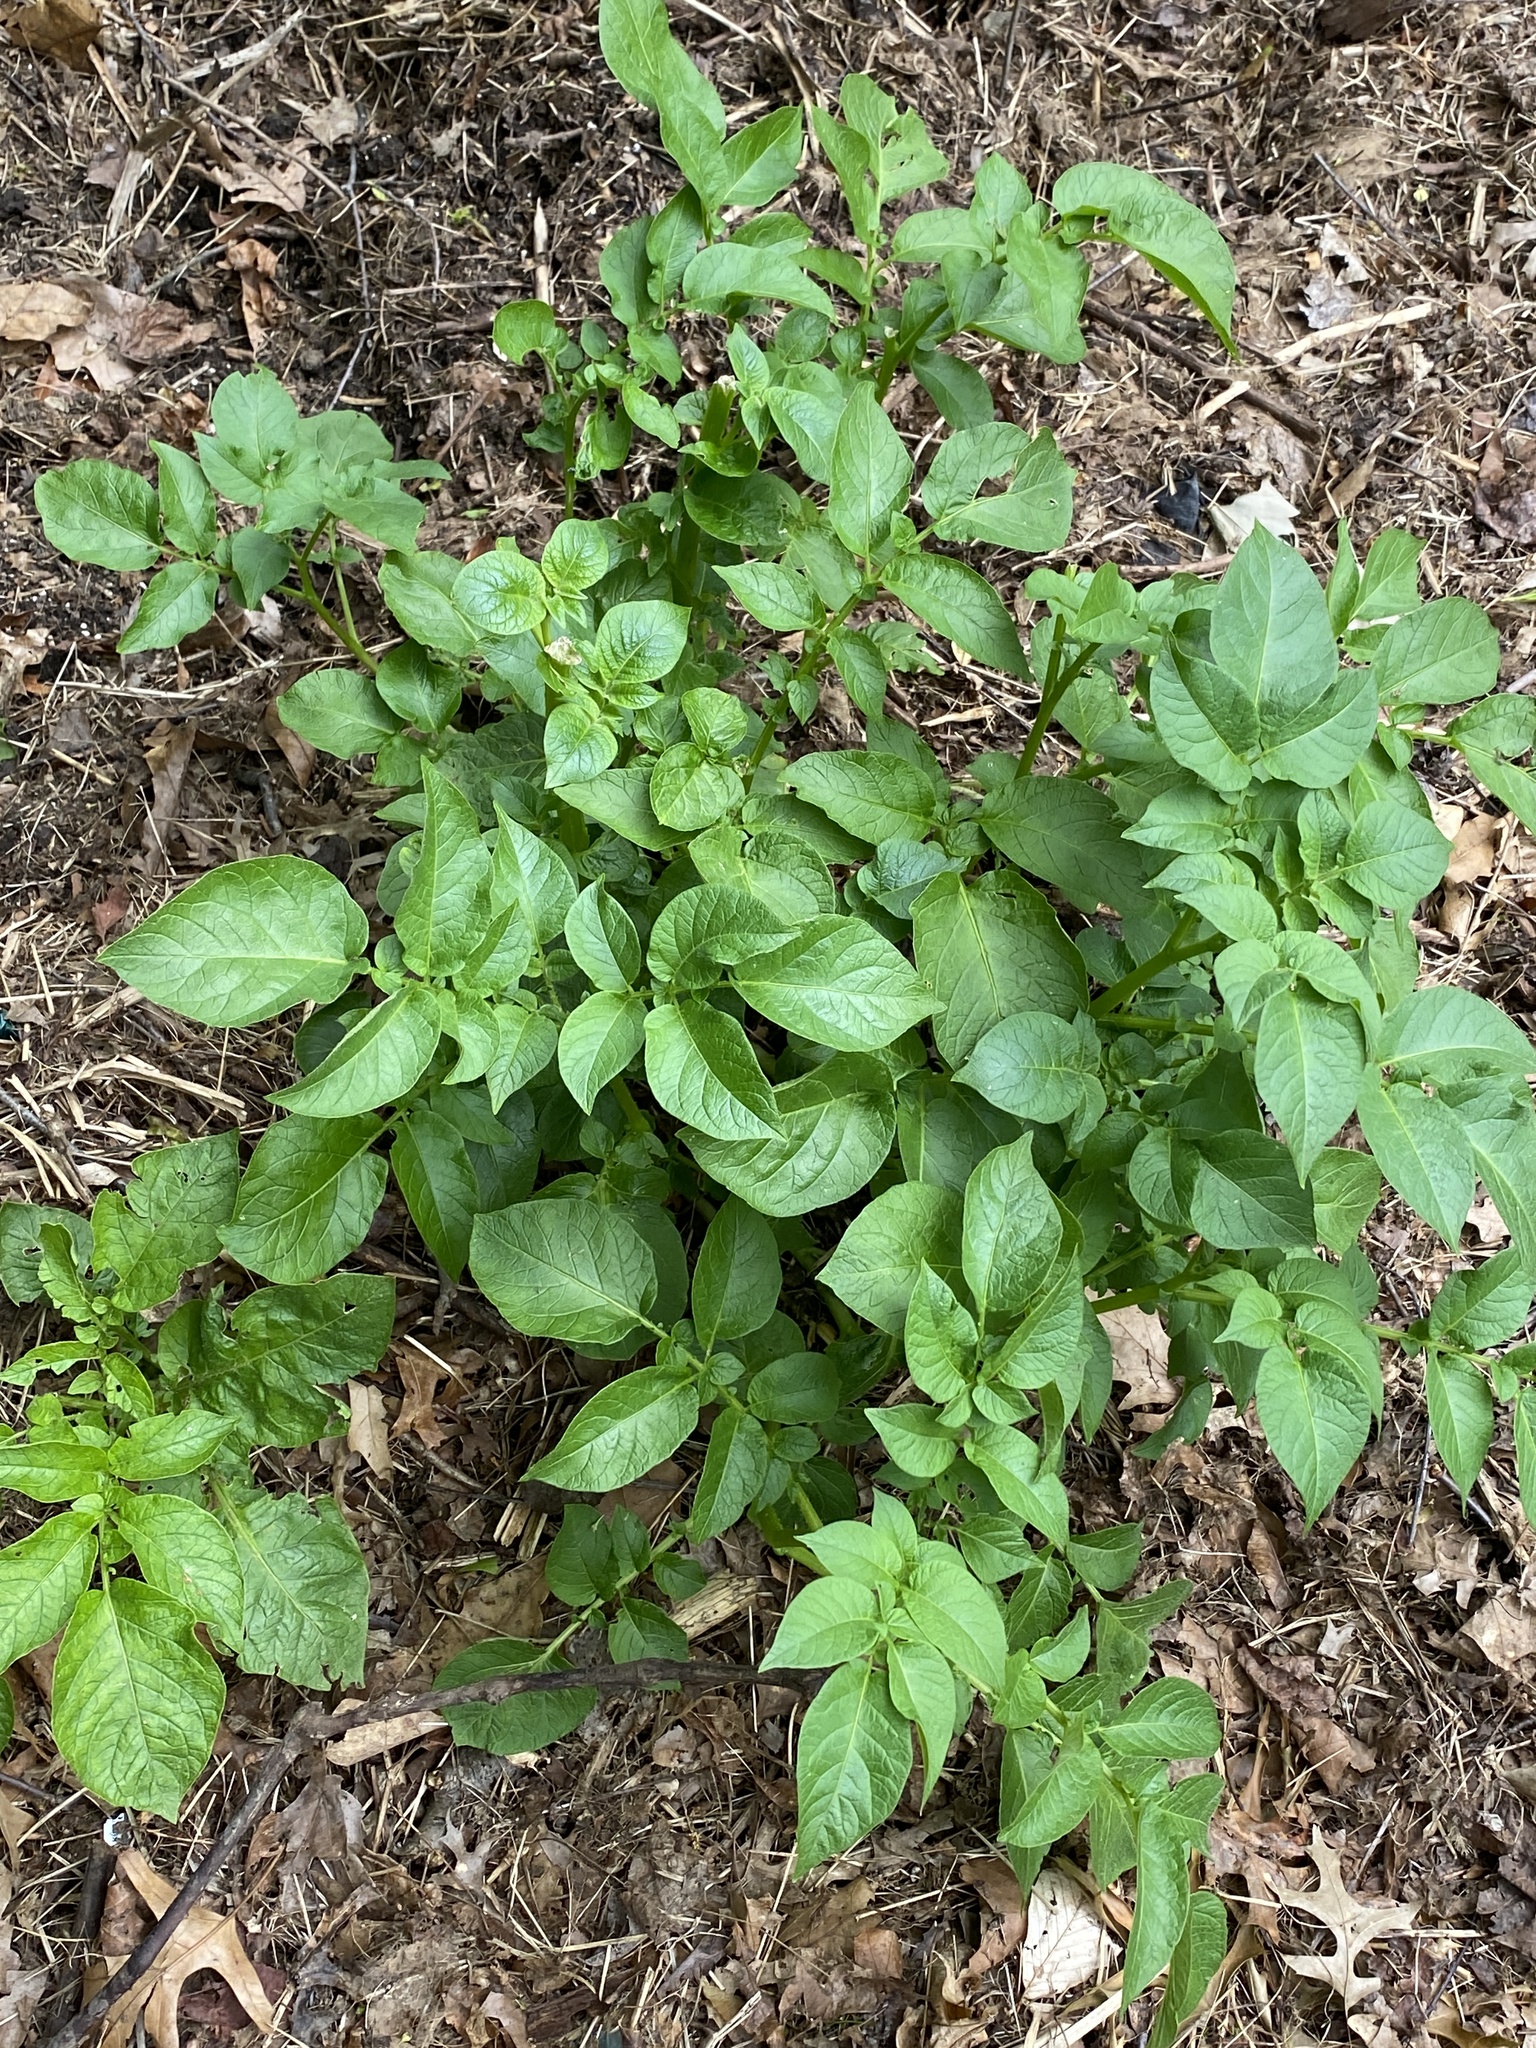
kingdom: Plantae
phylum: Tracheophyta
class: Magnoliopsida
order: Solanales
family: Solanaceae
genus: Solanum
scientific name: Solanum tuberosum
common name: Potato
